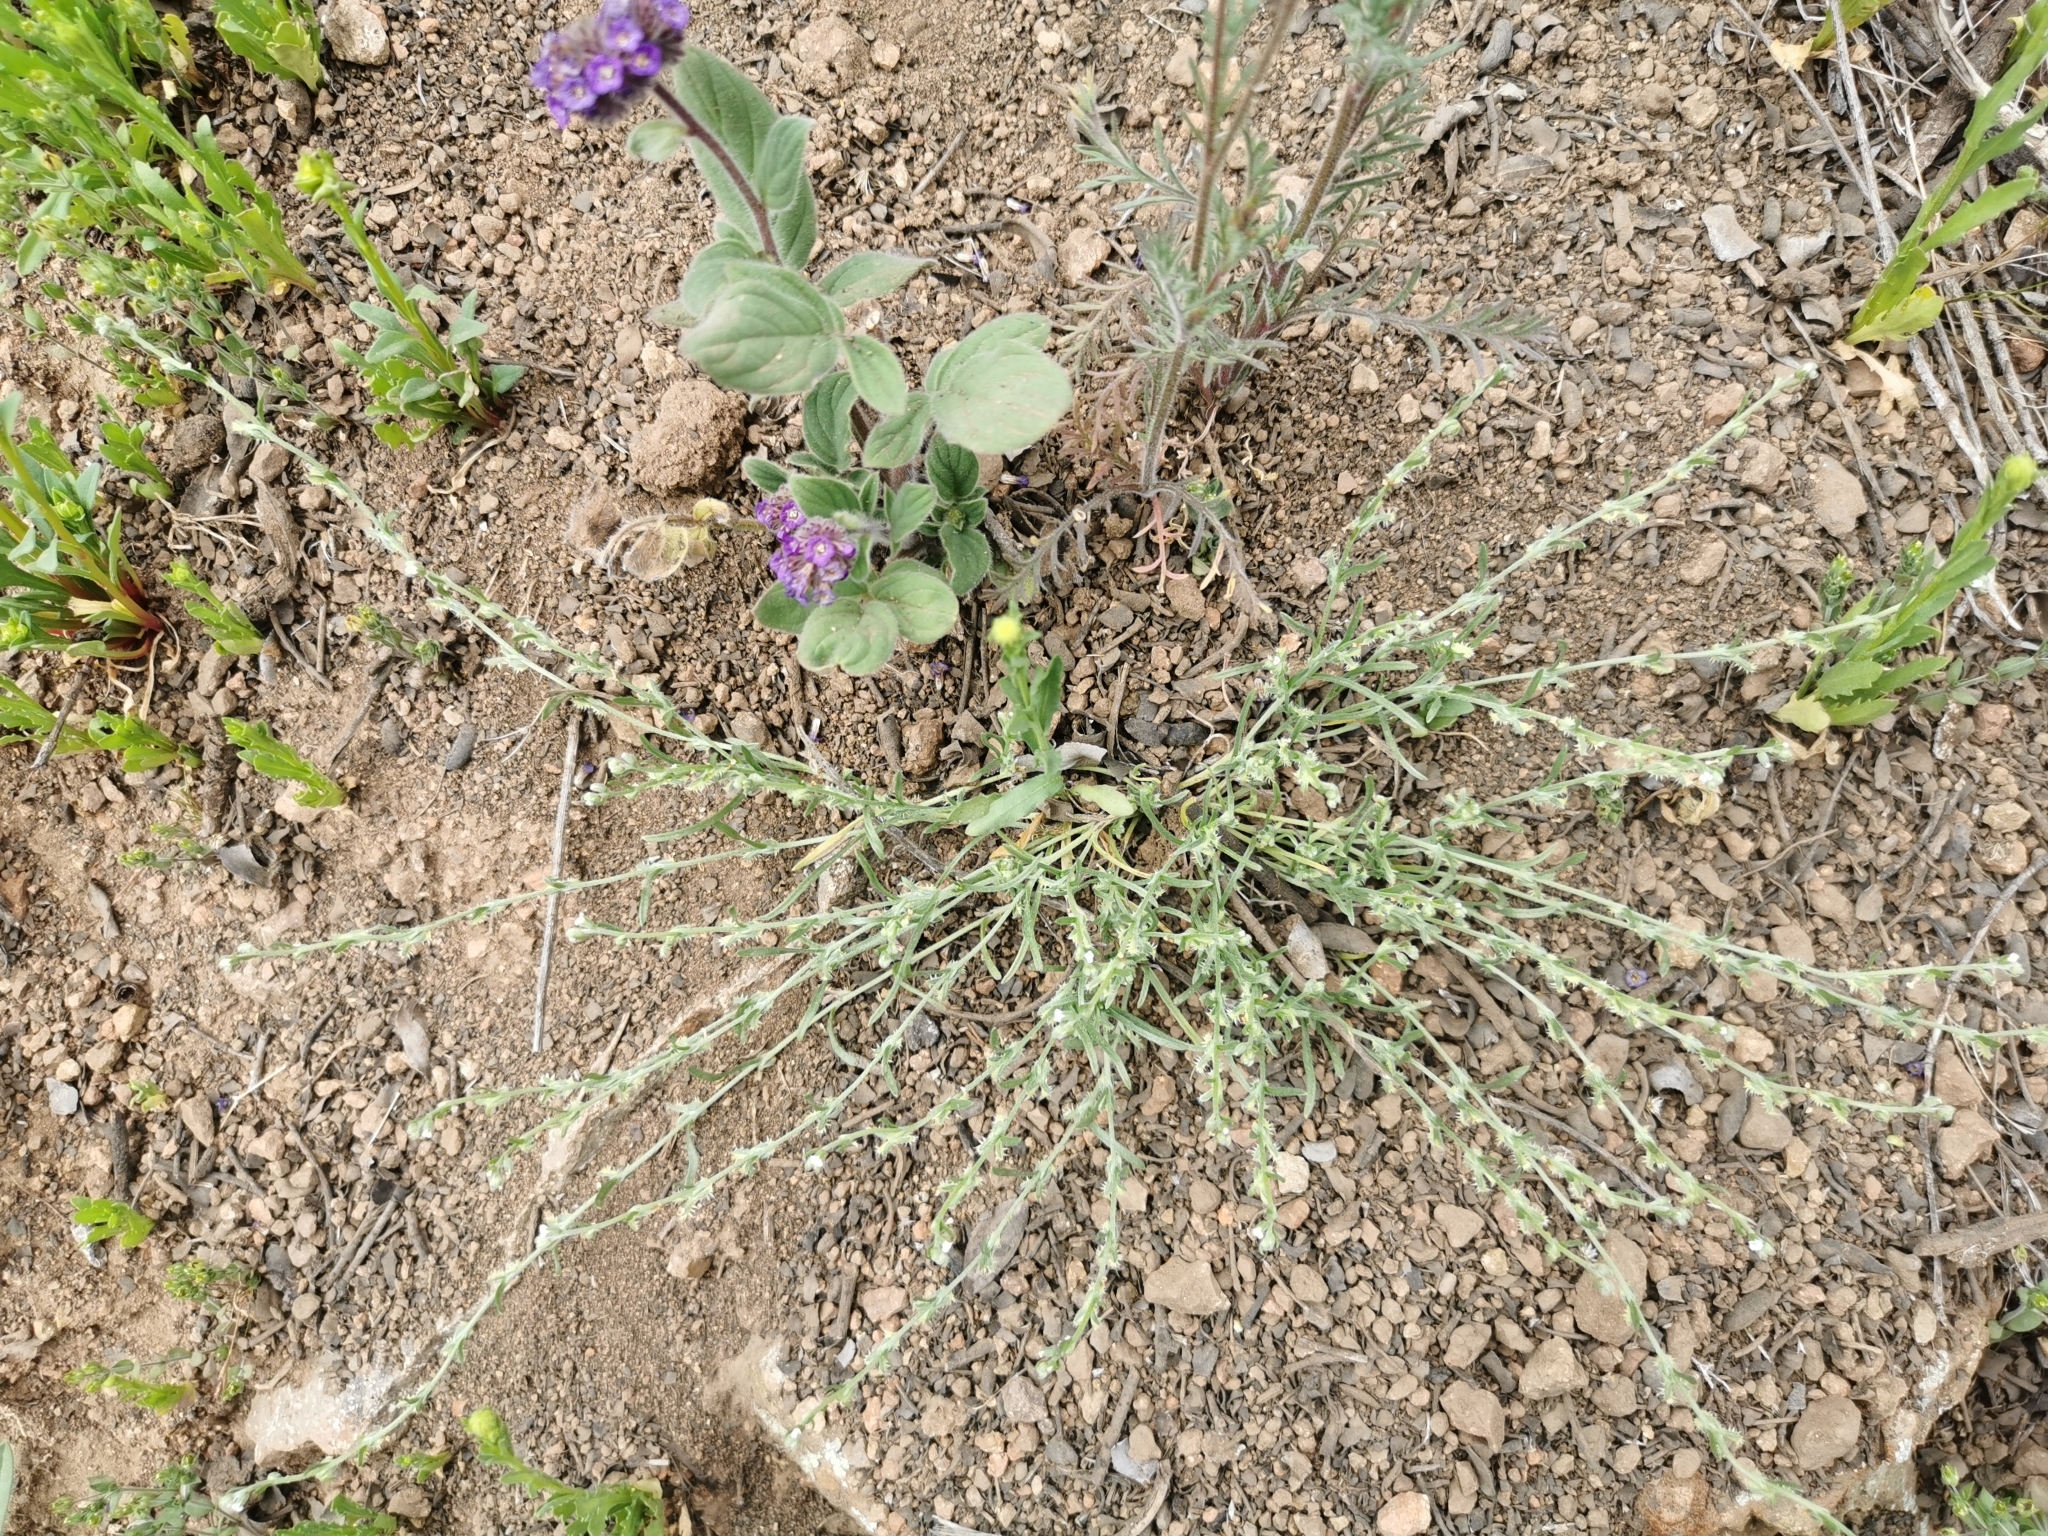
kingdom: Plantae
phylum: Tracheophyta
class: Magnoliopsida
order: Boraginales
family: Boraginaceae
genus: Pectocarya
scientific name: Pectocarya linearis
